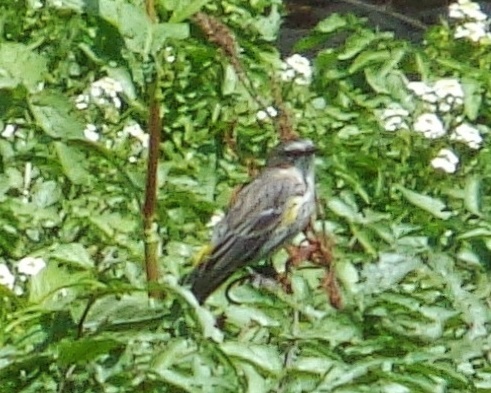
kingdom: Animalia
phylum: Chordata
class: Aves
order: Passeriformes
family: Parulidae
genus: Setophaga
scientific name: Setophaga coronata
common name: Myrtle warbler
